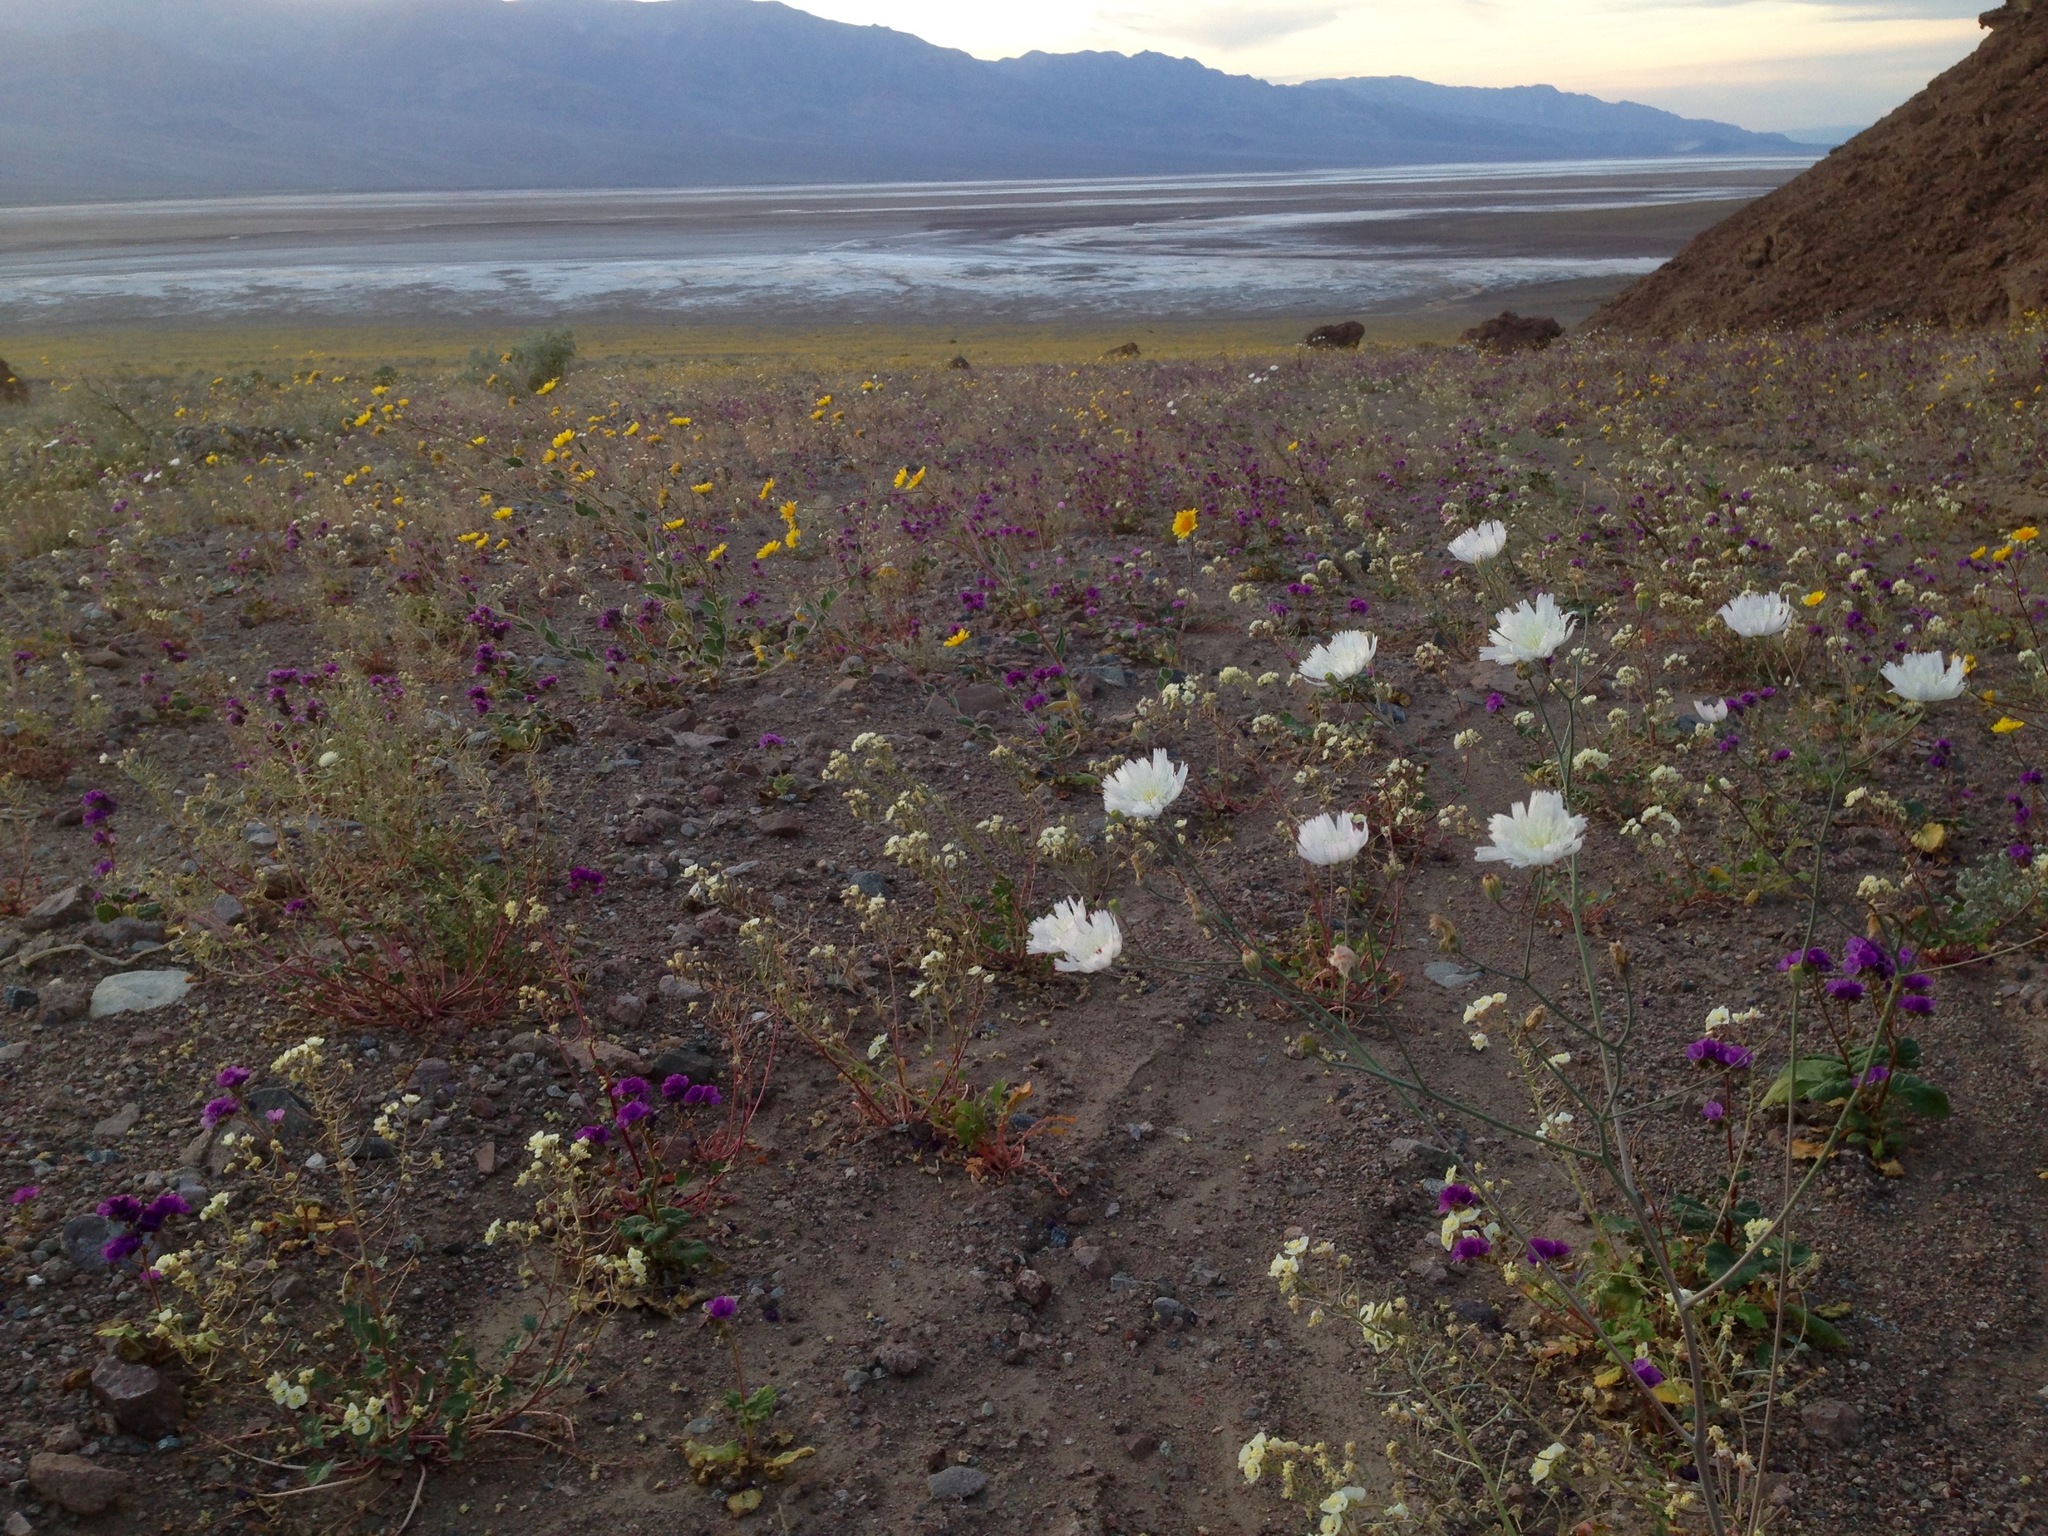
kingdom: Plantae
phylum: Tracheophyta
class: Magnoliopsida
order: Asterales
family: Asteraceae
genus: Atrichoseris
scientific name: Atrichoseris platyphylla
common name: Tobaccoweed
